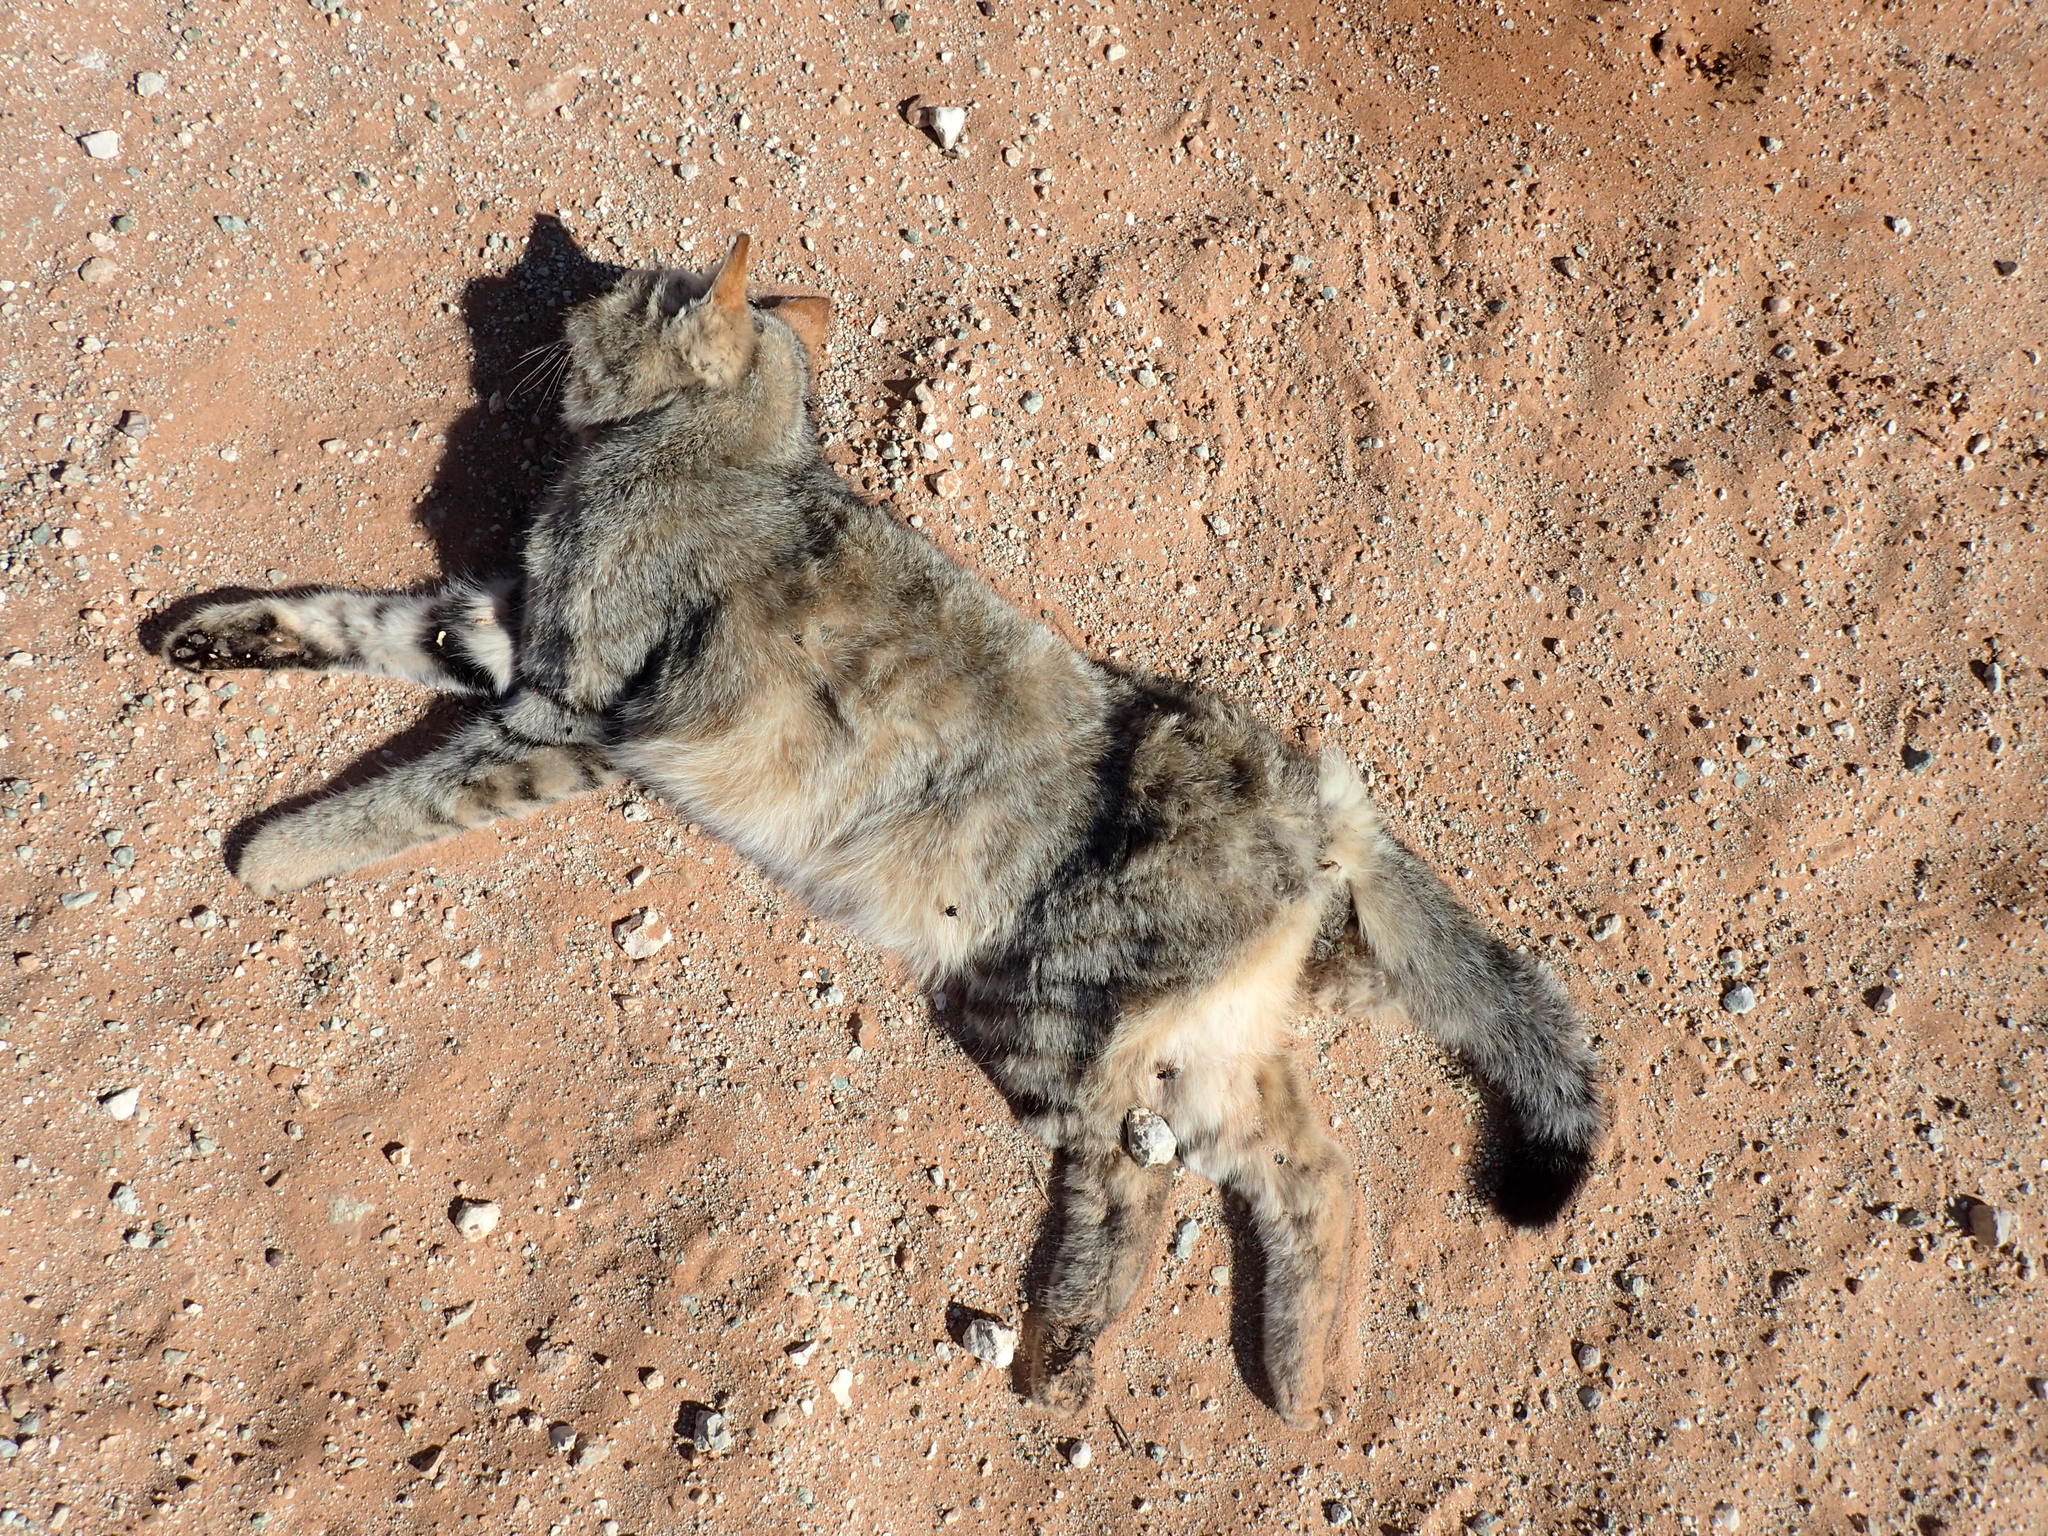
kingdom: Animalia
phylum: Chordata
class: Mammalia
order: Carnivora
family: Felidae
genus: Felis
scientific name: Felis silvestris
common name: Wildcat
